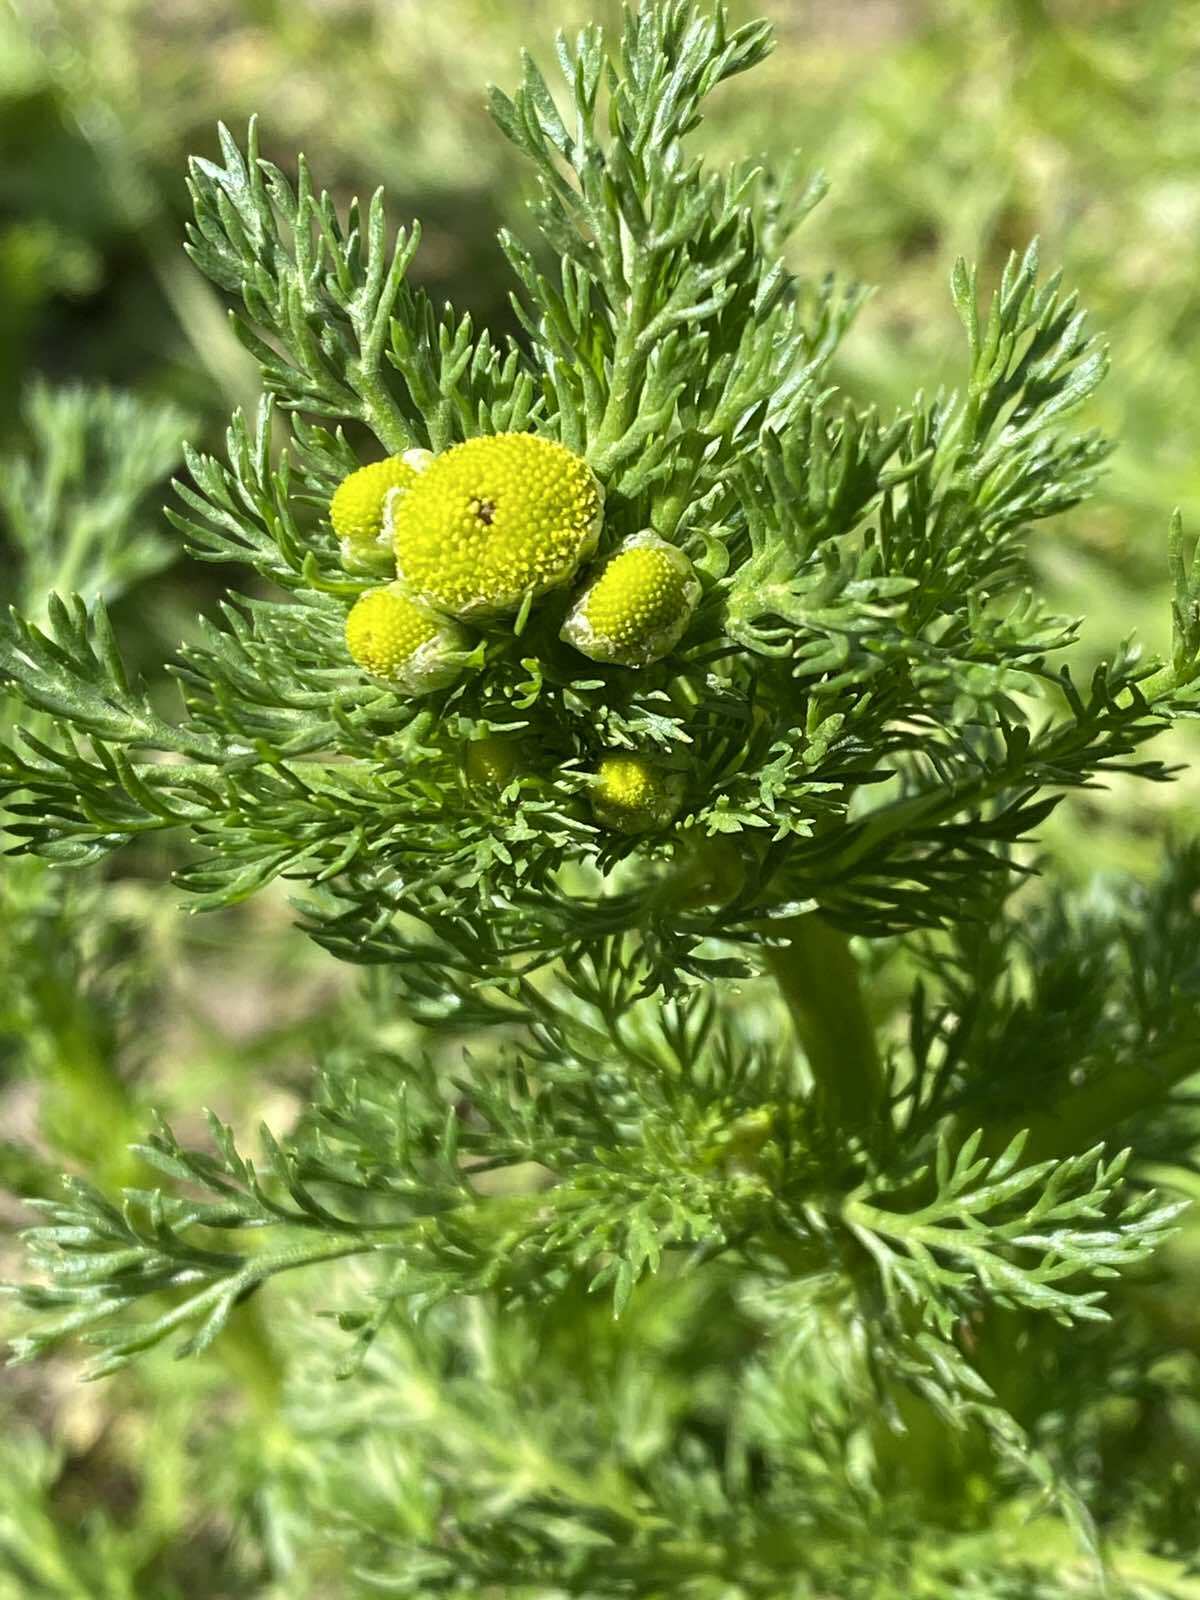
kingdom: Plantae
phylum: Tracheophyta
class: Magnoliopsida
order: Asterales
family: Asteraceae
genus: Matricaria
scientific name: Matricaria discoidea
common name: Disc mayweed
